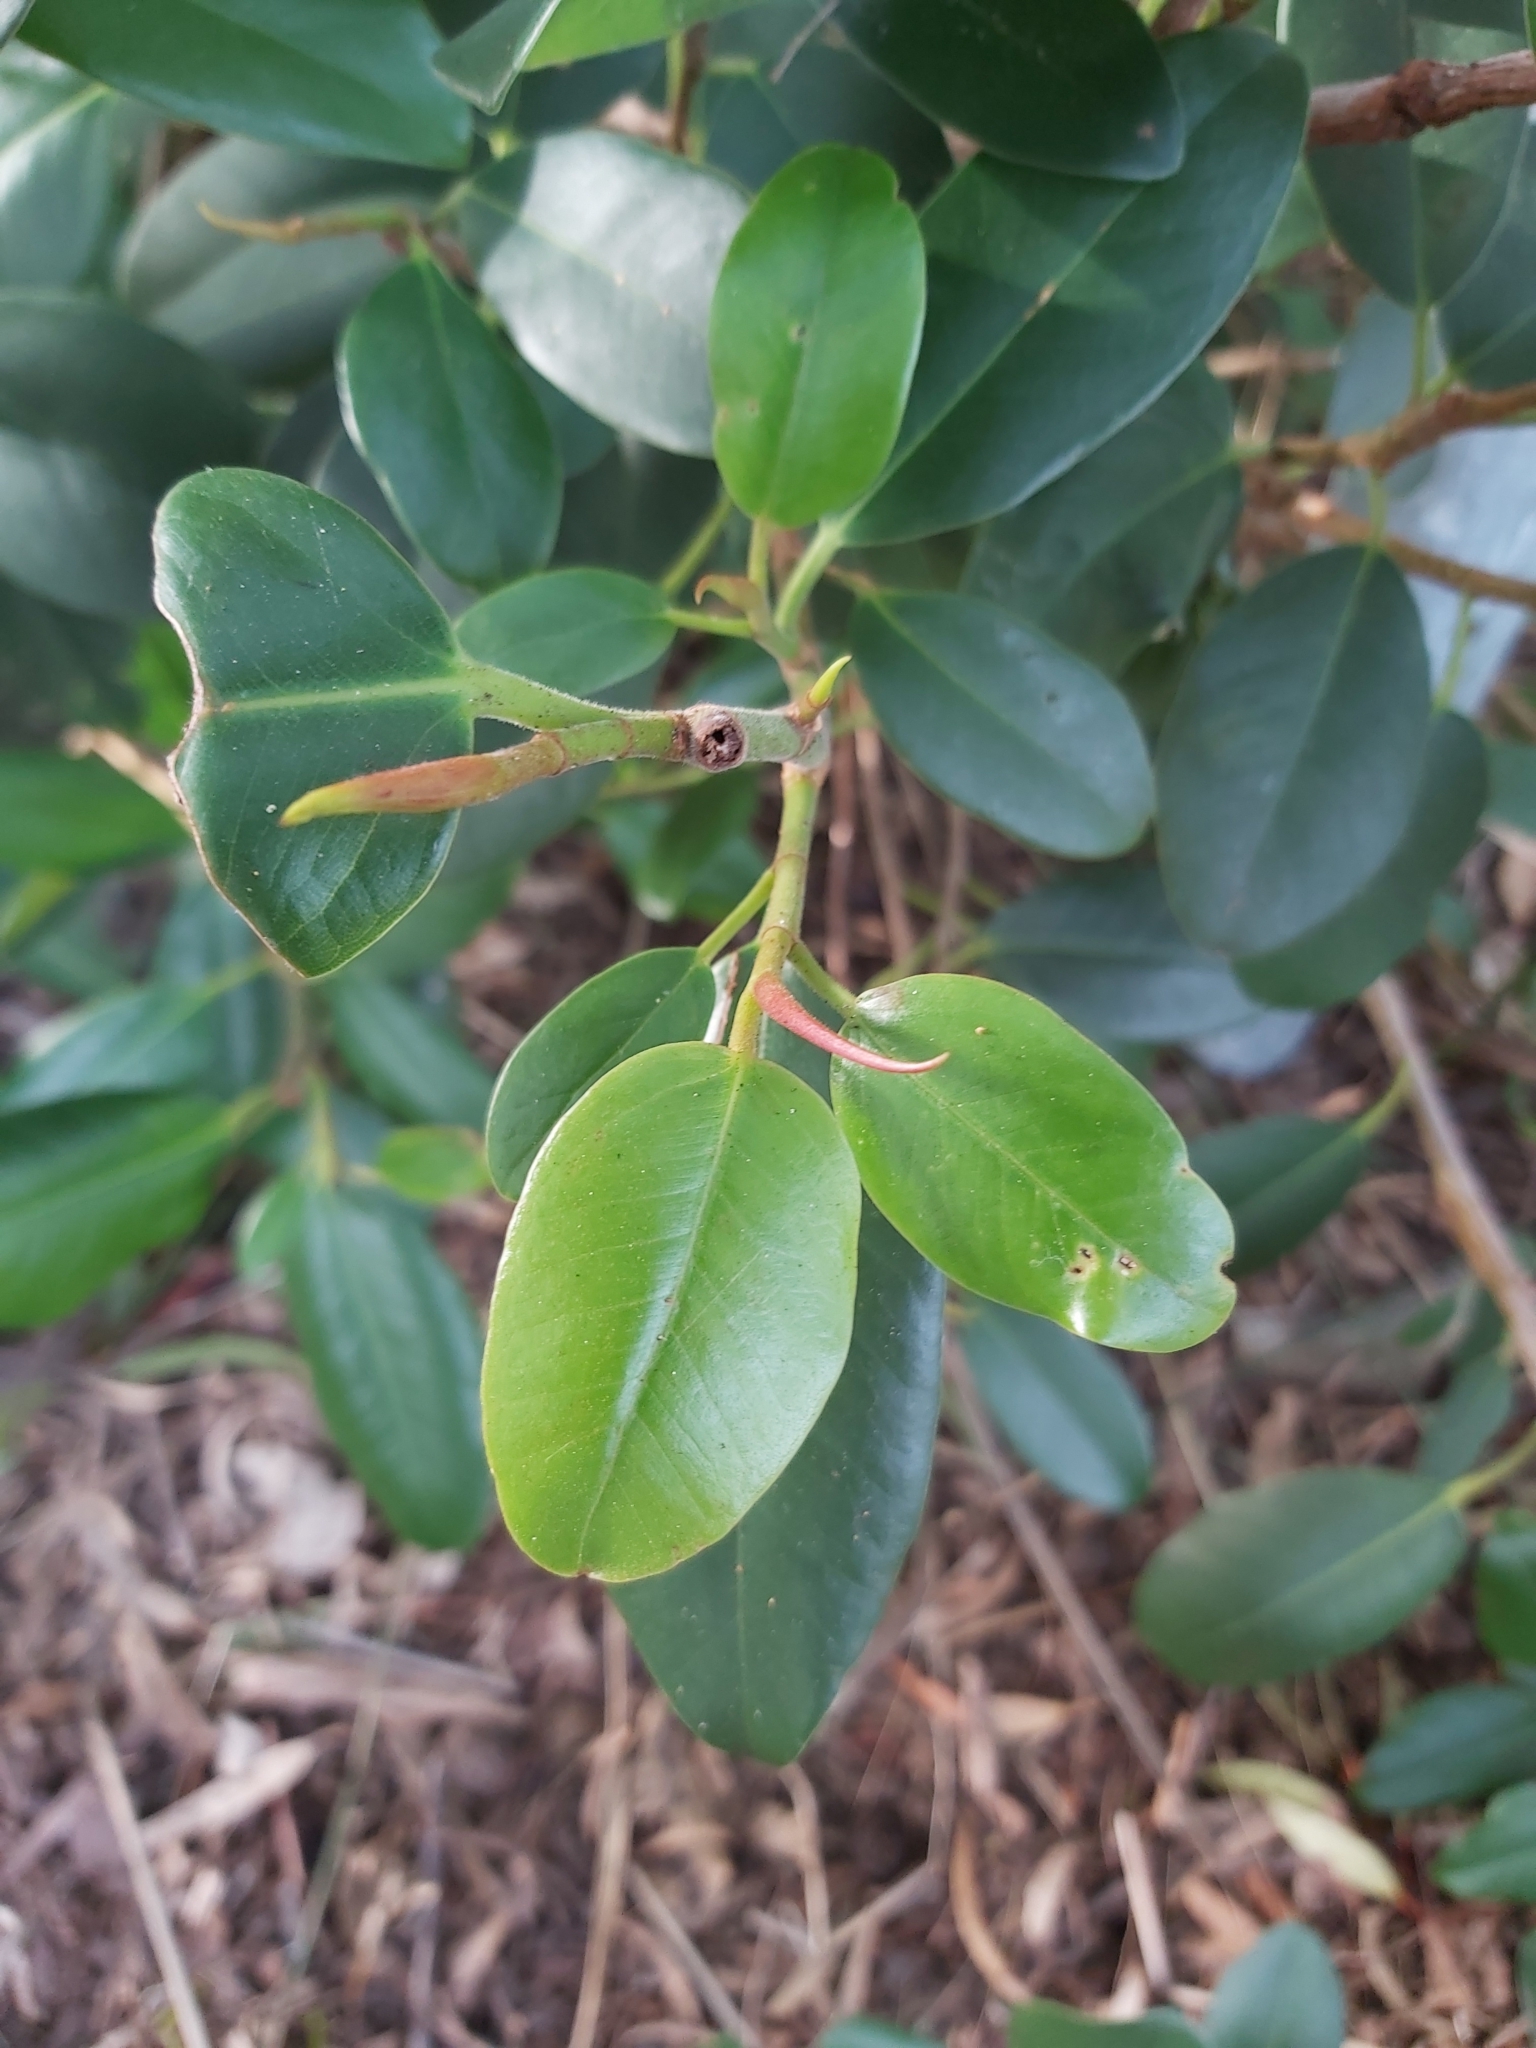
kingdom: Plantae
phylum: Tracheophyta
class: Magnoliopsida
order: Rosales
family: Moraceae
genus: Ficus
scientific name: Ficus rubiginosa
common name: Port jackson fig
